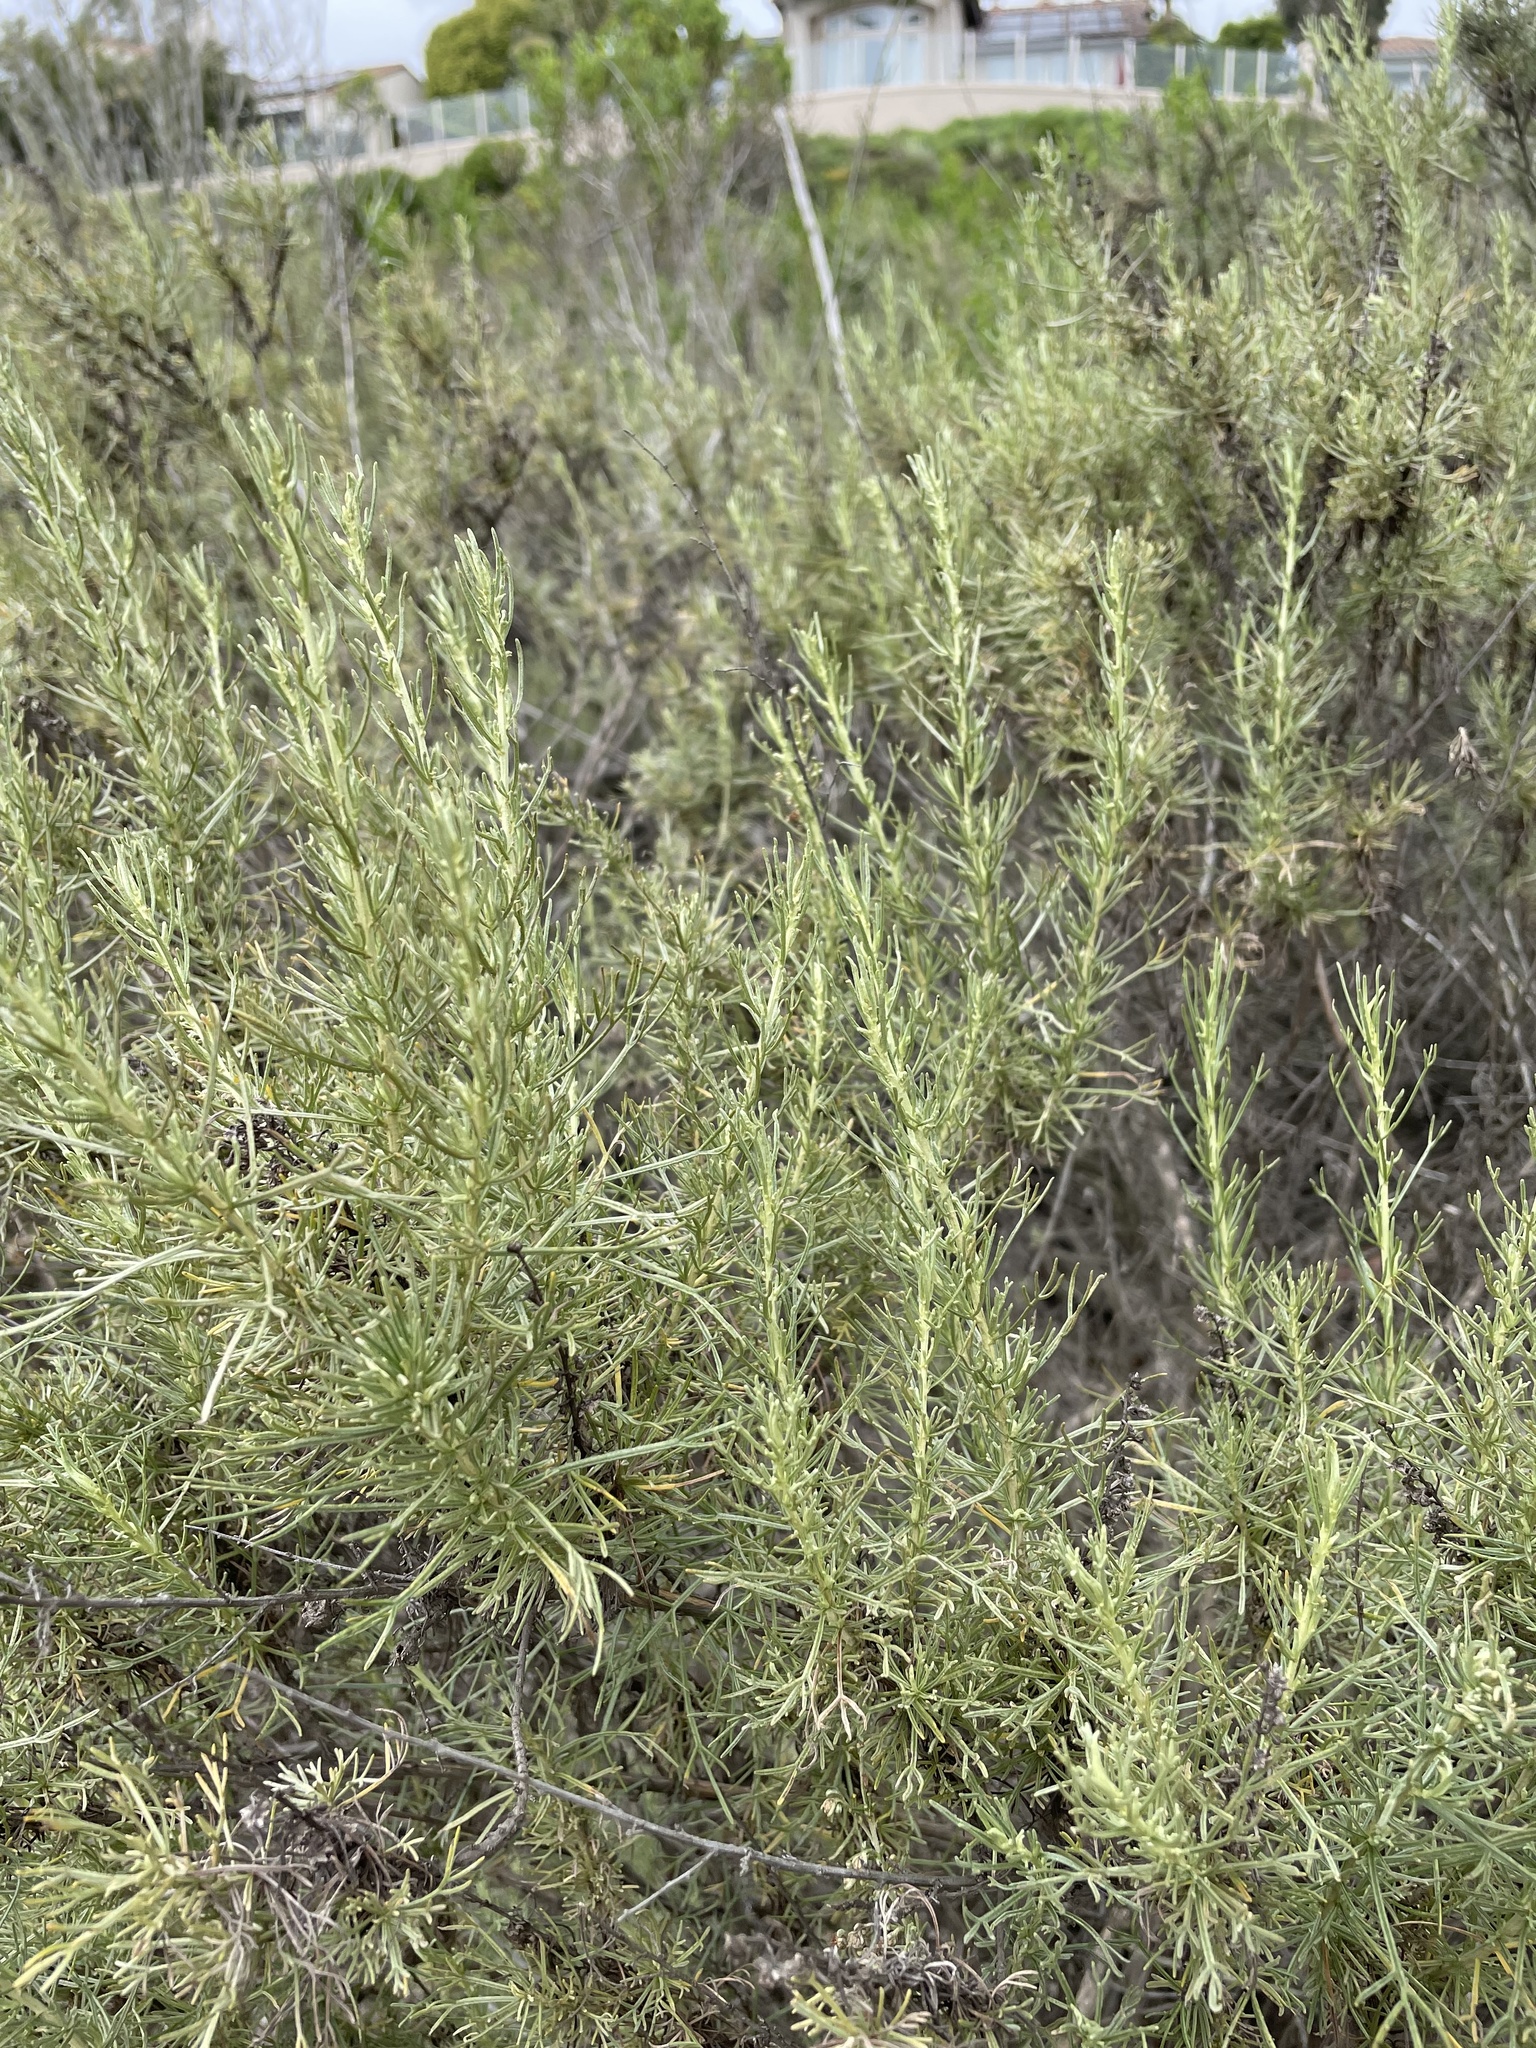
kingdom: Plantae
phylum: Tracheophyta
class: Magnoliopsida
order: Asterales
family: Asteraceae
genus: Artemisia
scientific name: Artemisia californica
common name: California sagebrush
